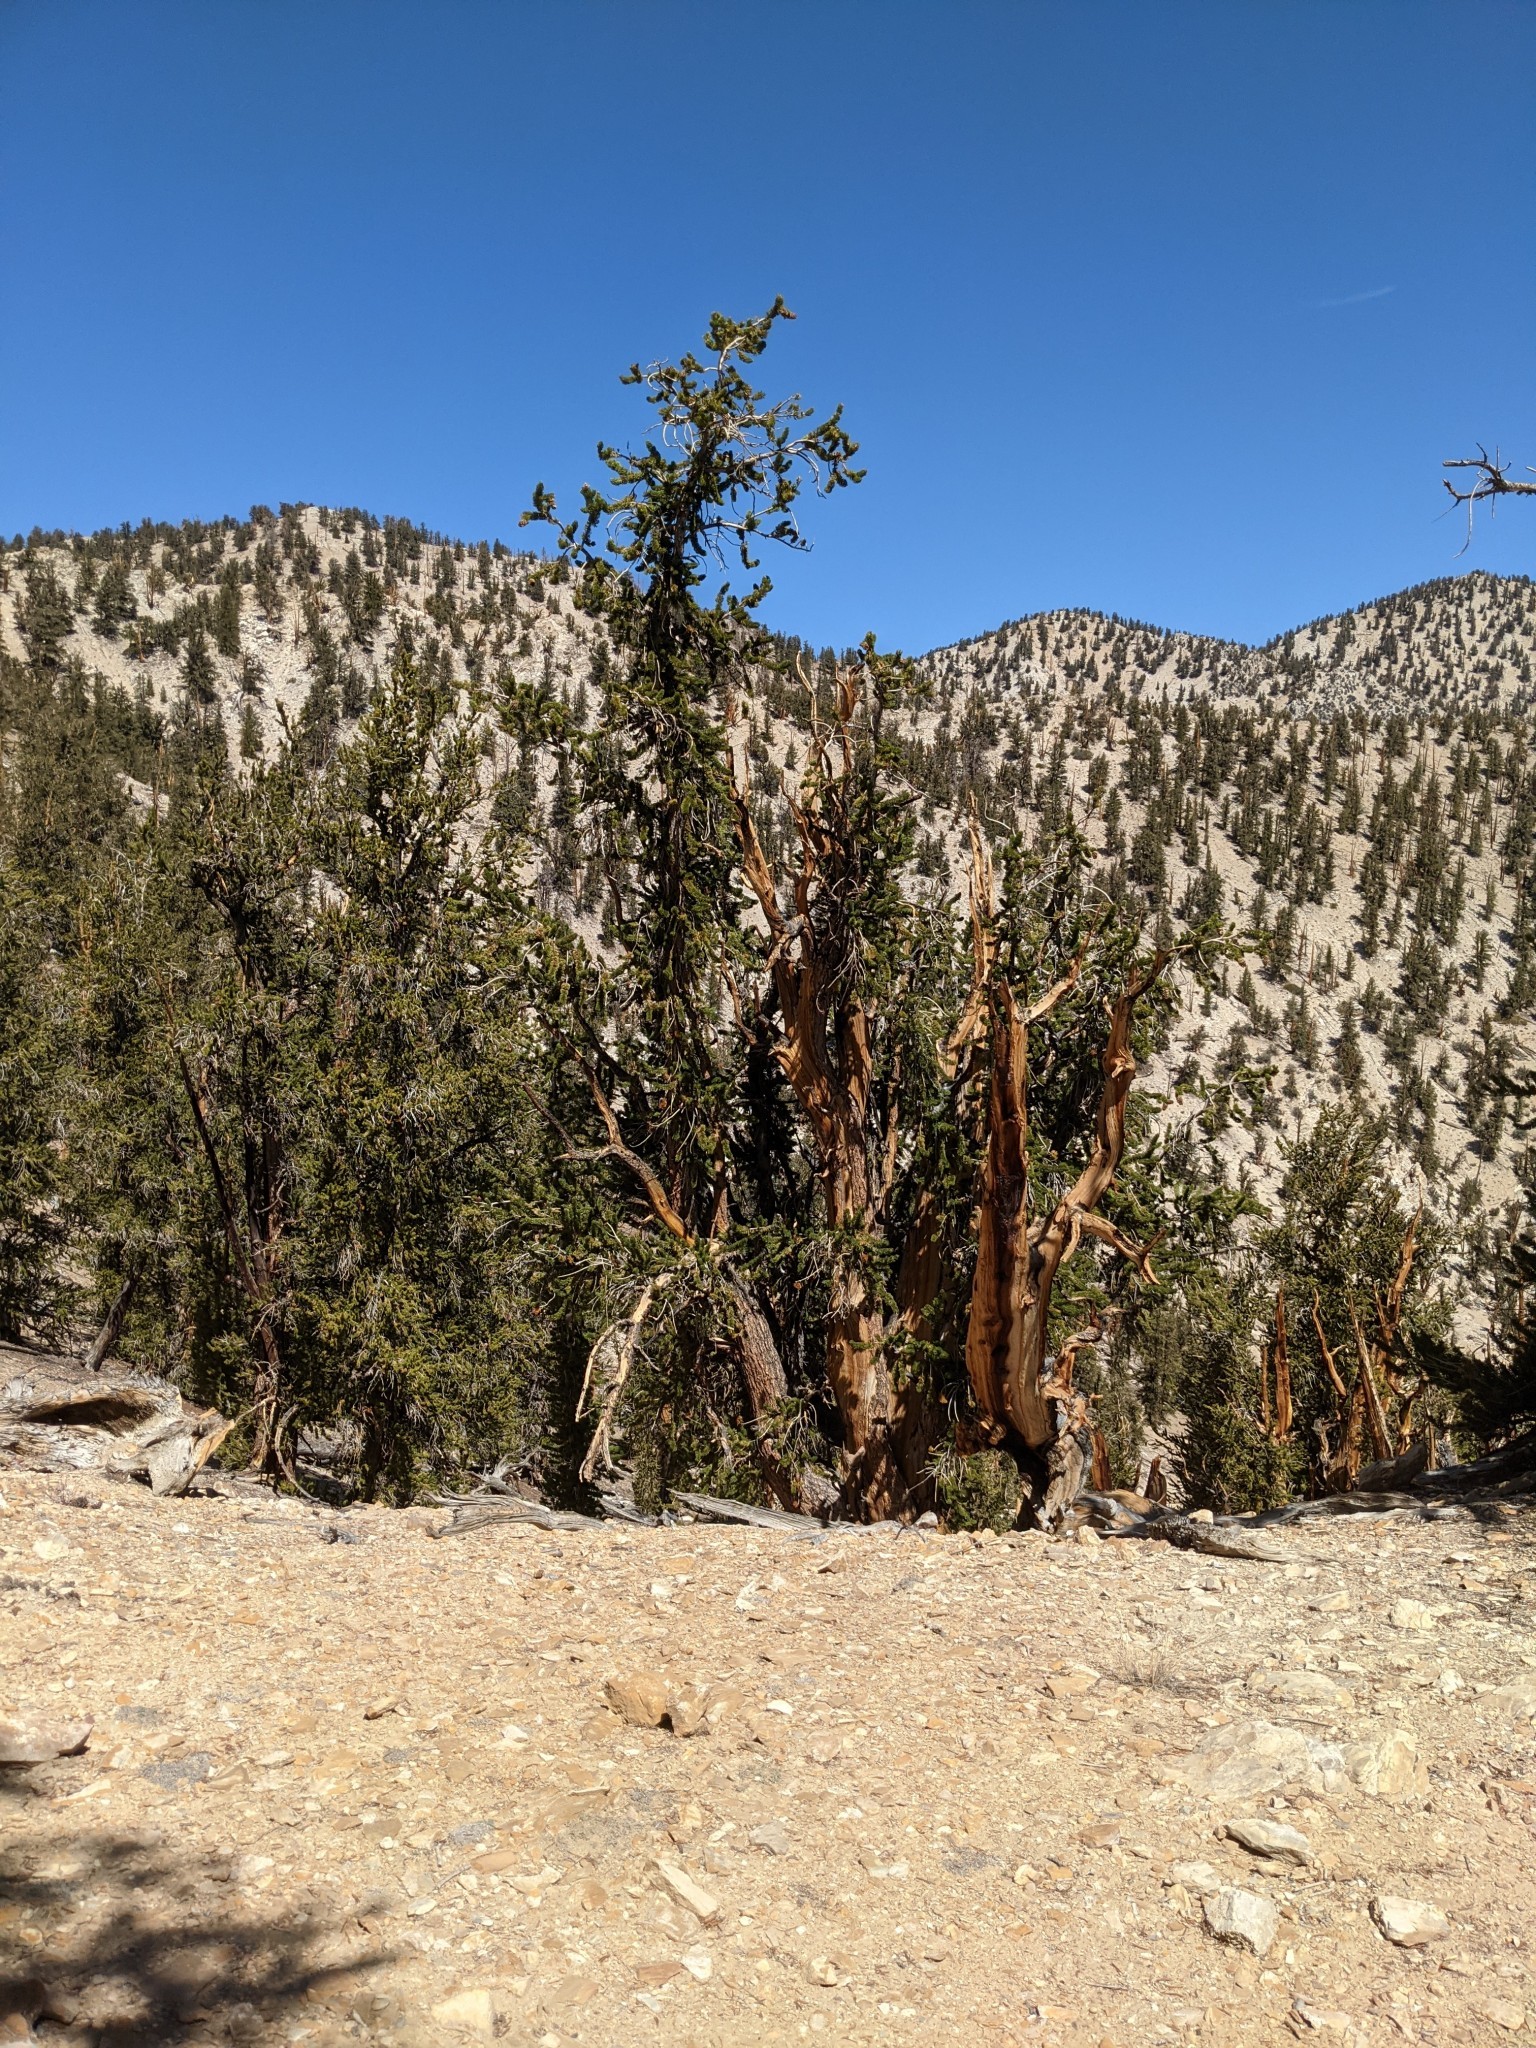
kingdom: Plantae
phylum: Tracheophyta
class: Pinopsida
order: Pinales
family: Pinaceae
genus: Pinus
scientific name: Pinus longaeva
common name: Intermountain bristlecone pine
